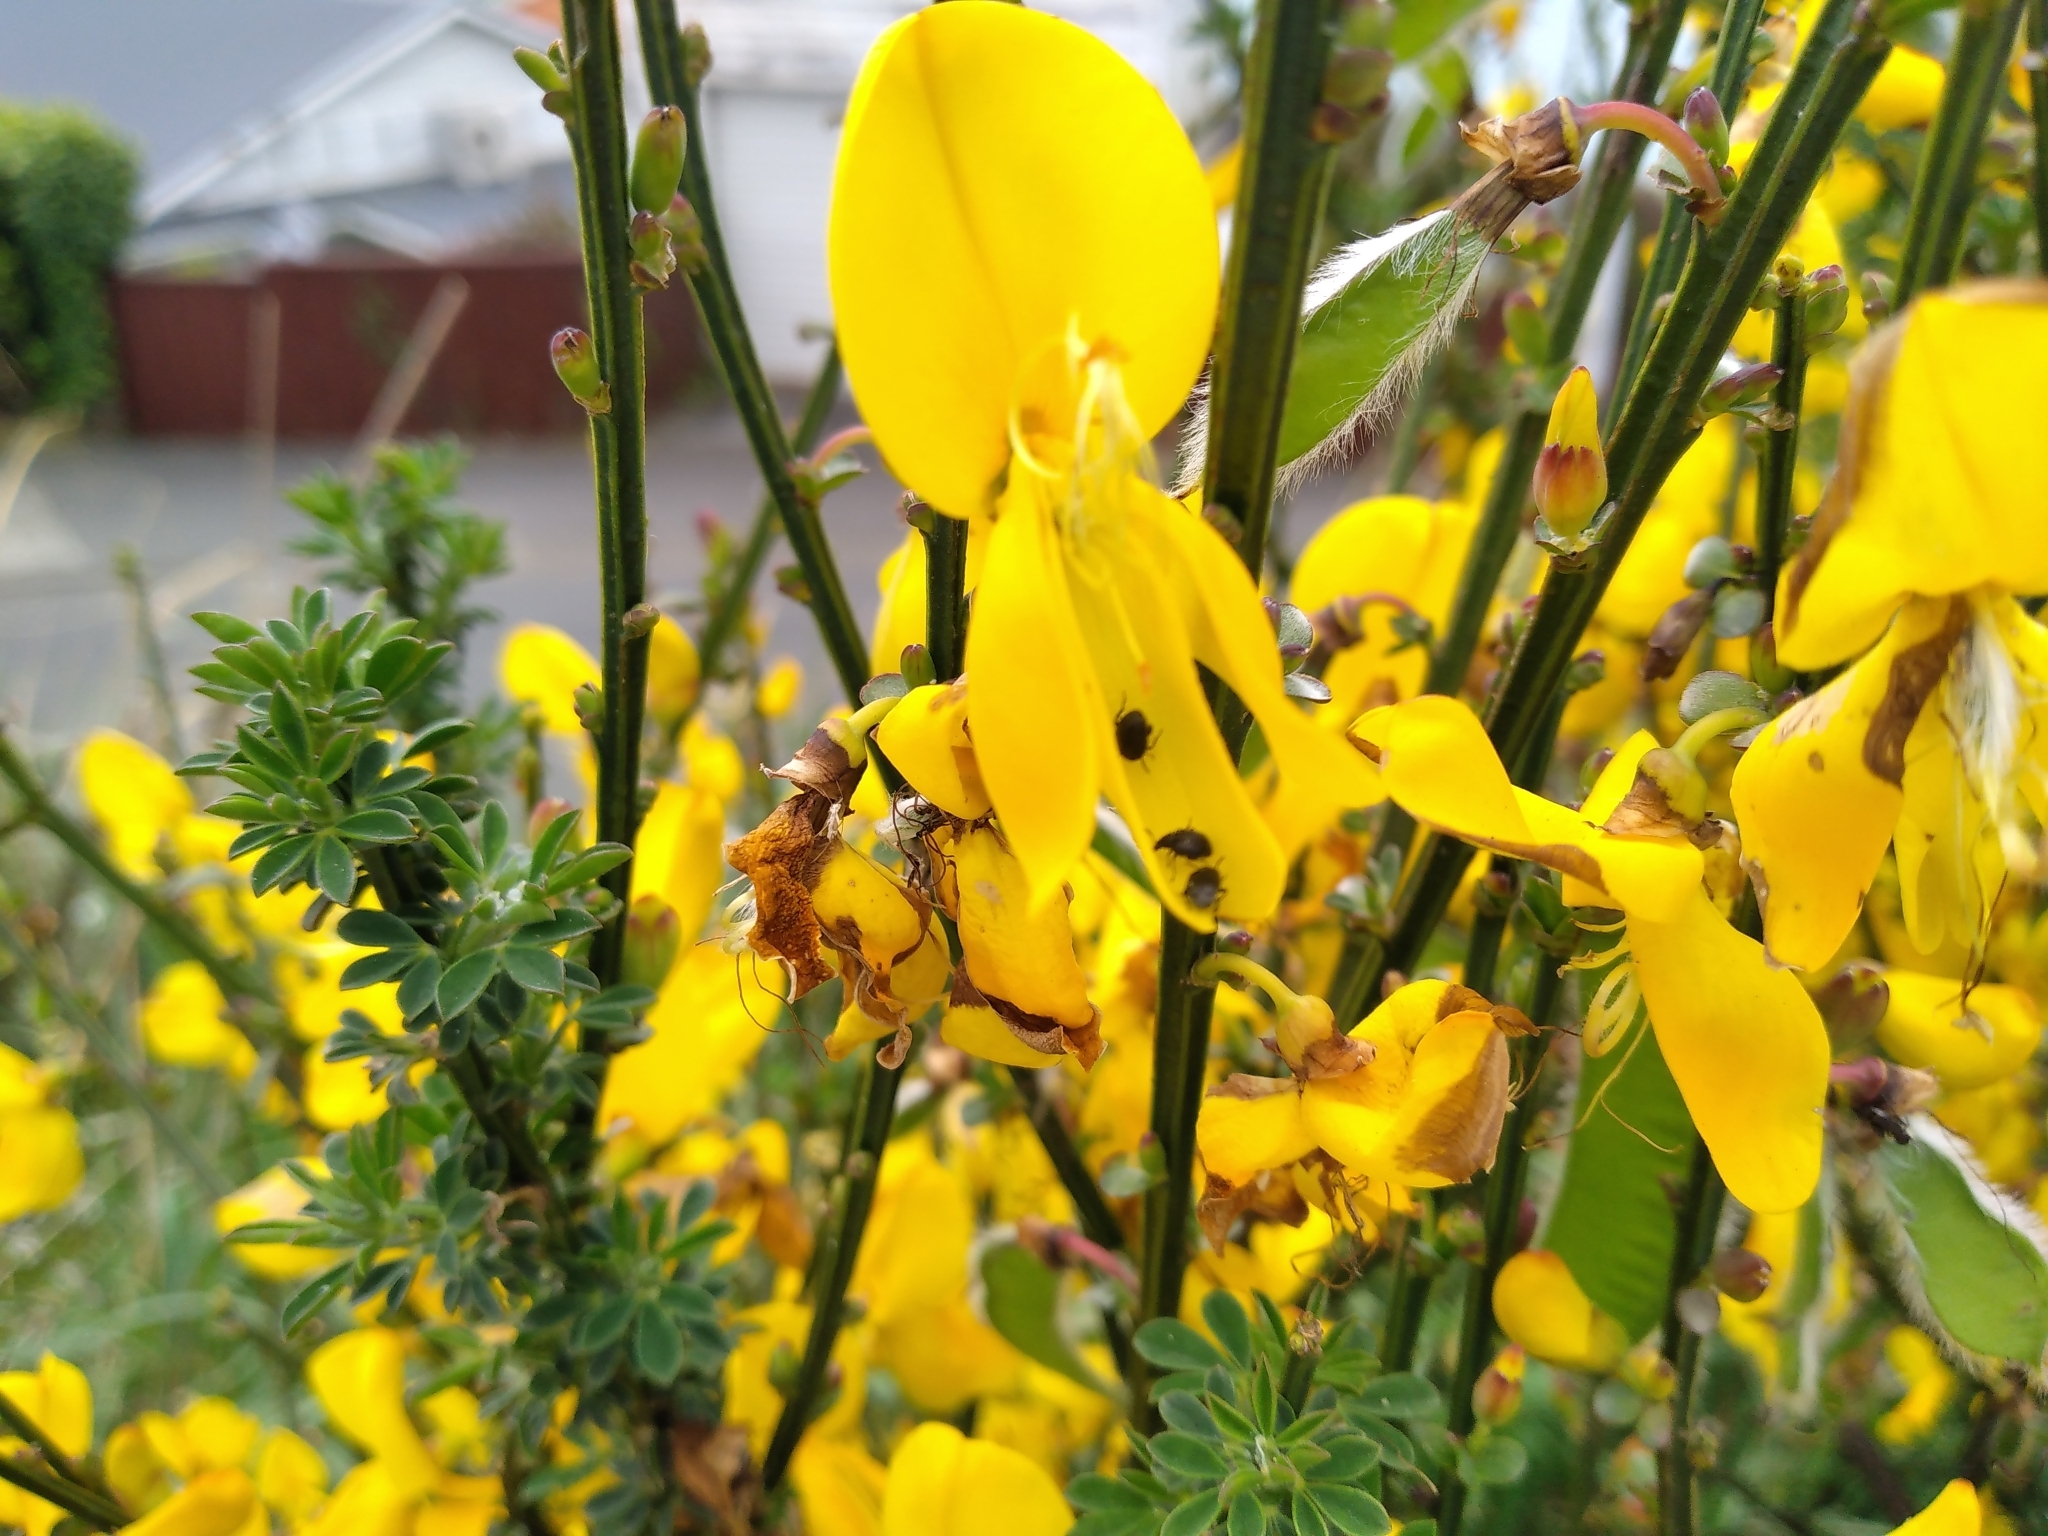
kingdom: Animalia
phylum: Arthropoda
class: Insecta
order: Coleoptera
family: Chrysomelidae
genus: Bruchidius
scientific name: Bruchidius villosus
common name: Scotch broom bruchid
